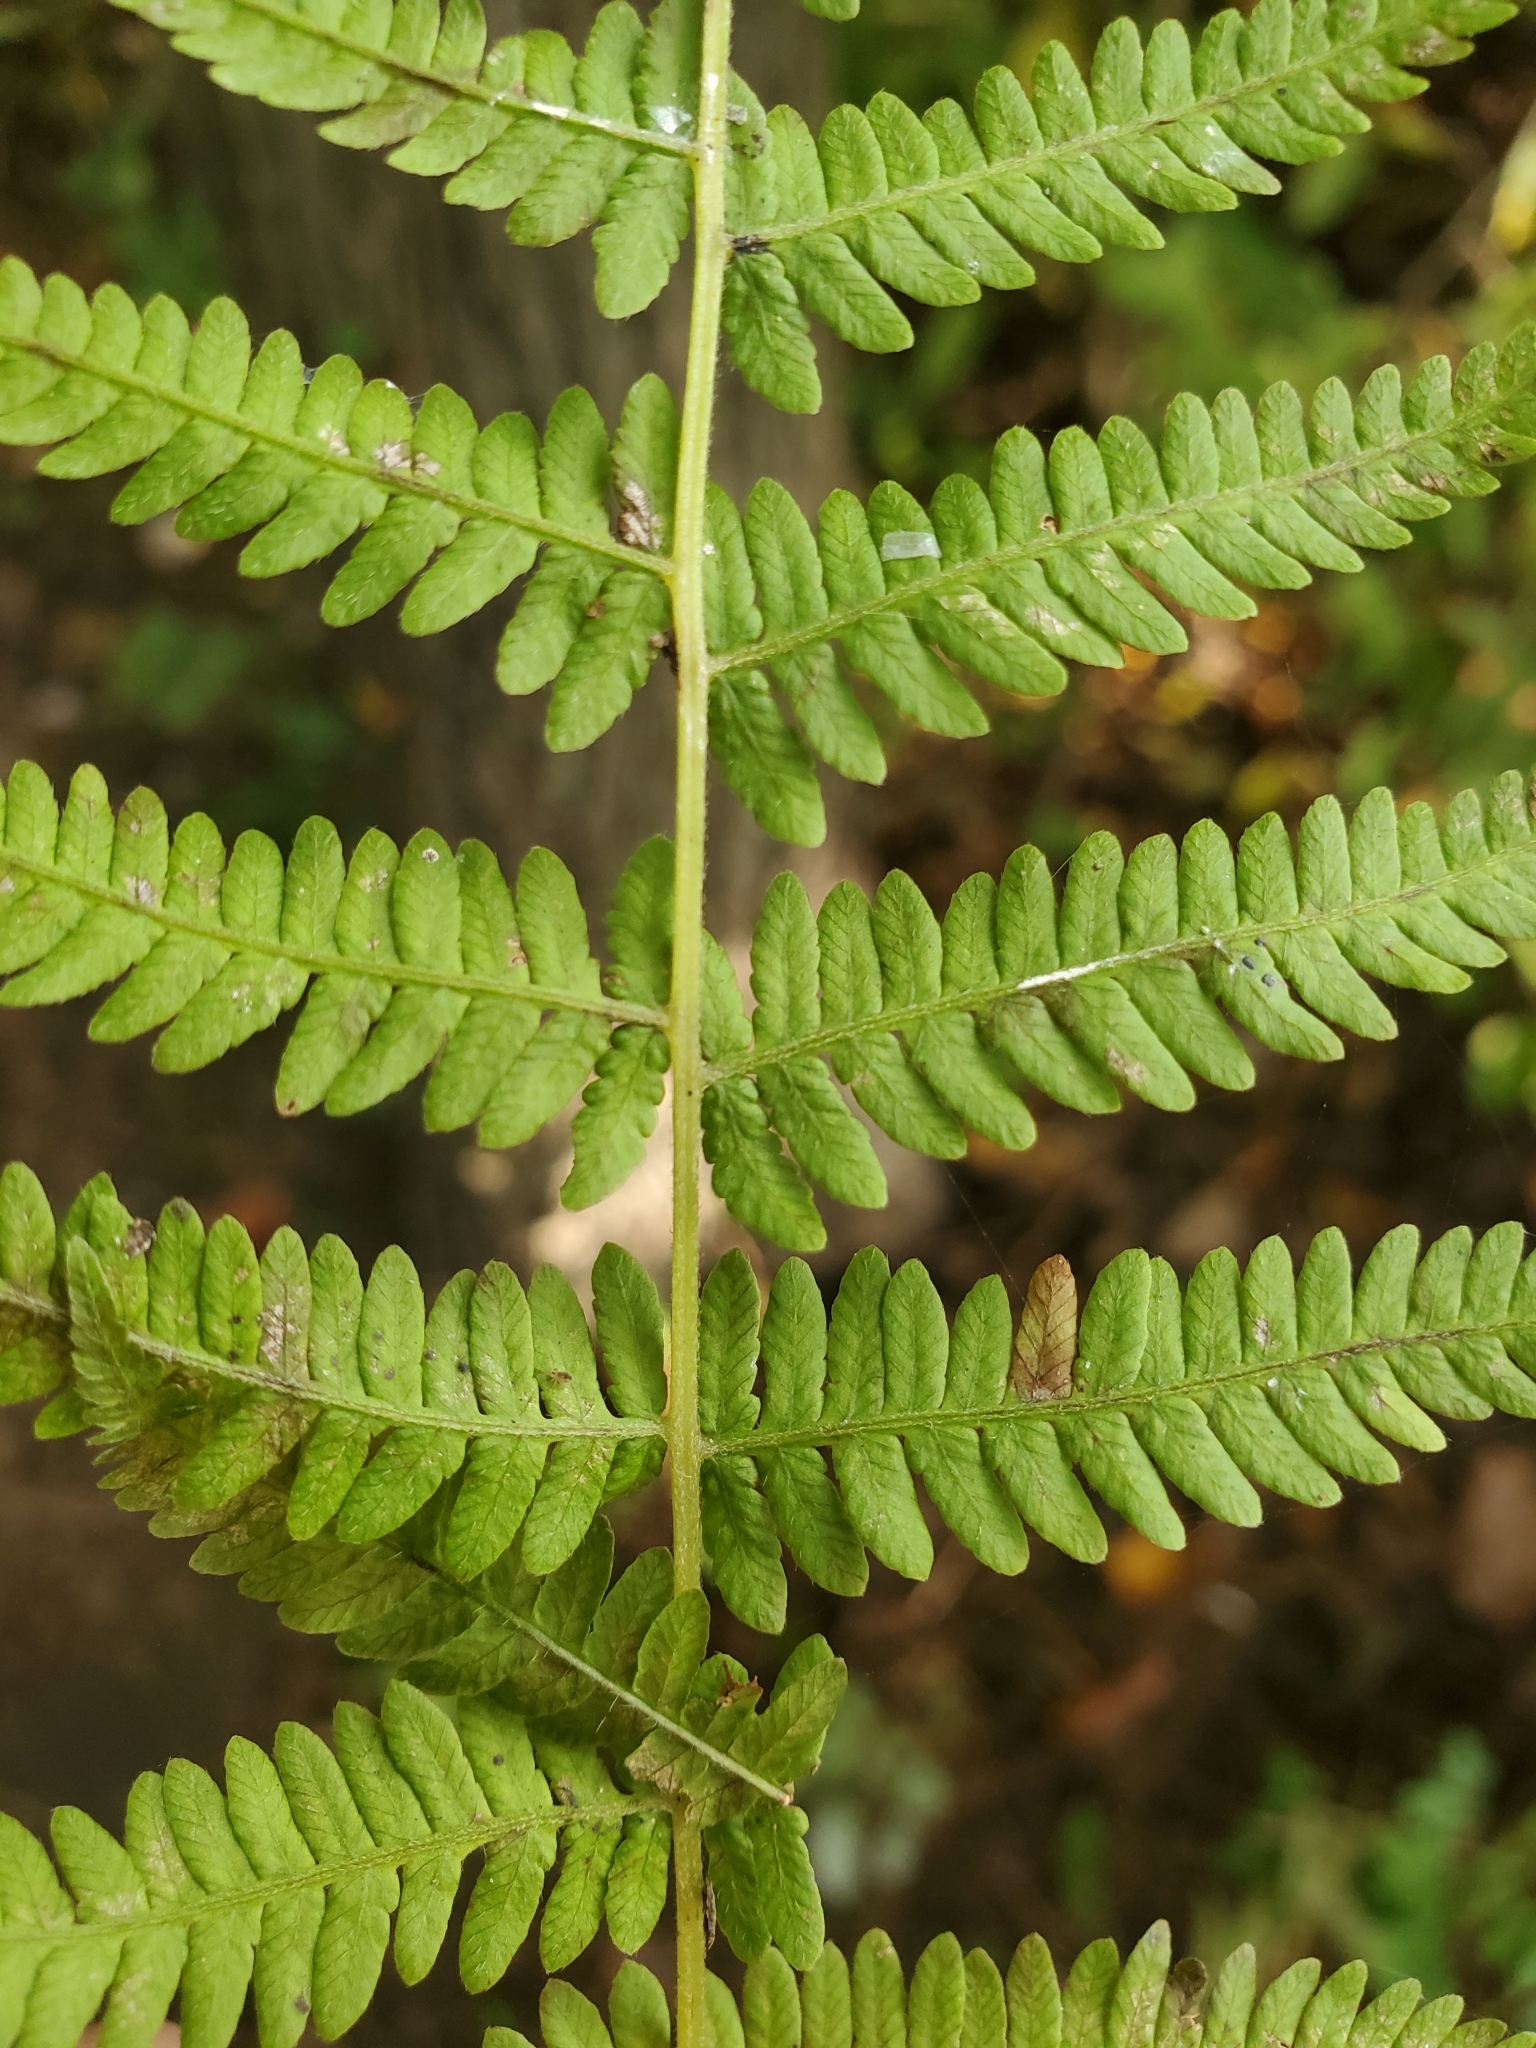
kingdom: Plantae
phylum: Tracheophyta
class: Polypodiopsida
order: Polypodiales
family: Thelypteridaceae
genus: Amauropelta
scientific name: Amauropelta noveboracensis
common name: New york fern
